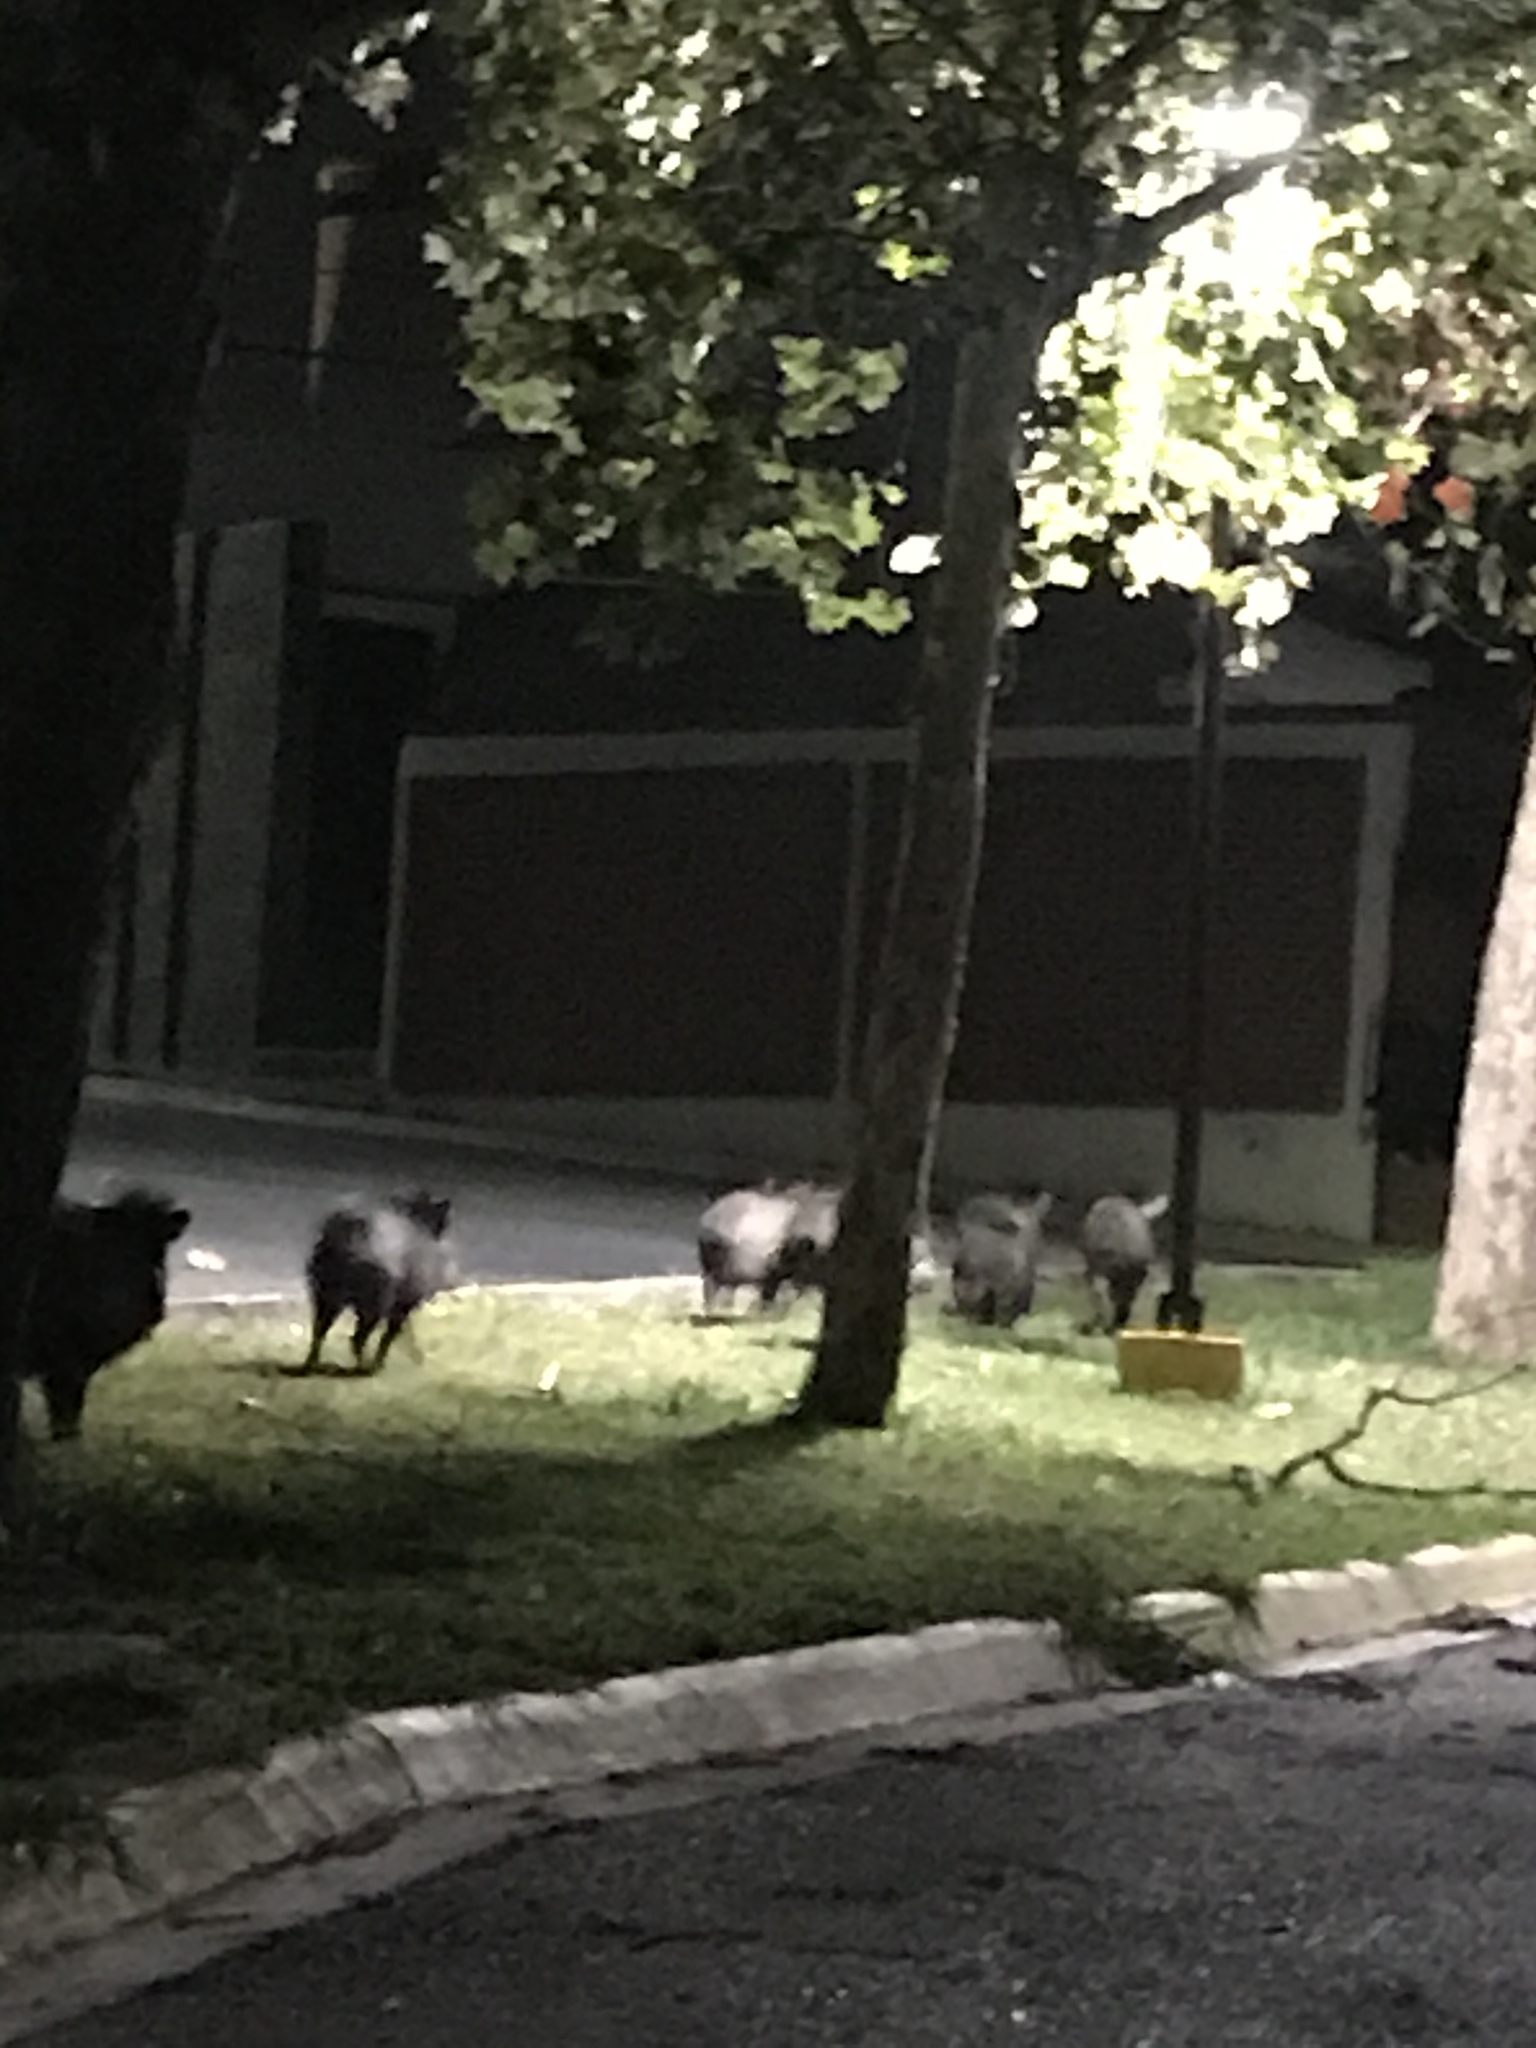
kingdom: Animalia
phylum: Chordata
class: Mammalia
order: Artiodactyla
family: Tayassuidae
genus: Pecari
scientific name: Pecari tajacu
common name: Collared peccary
